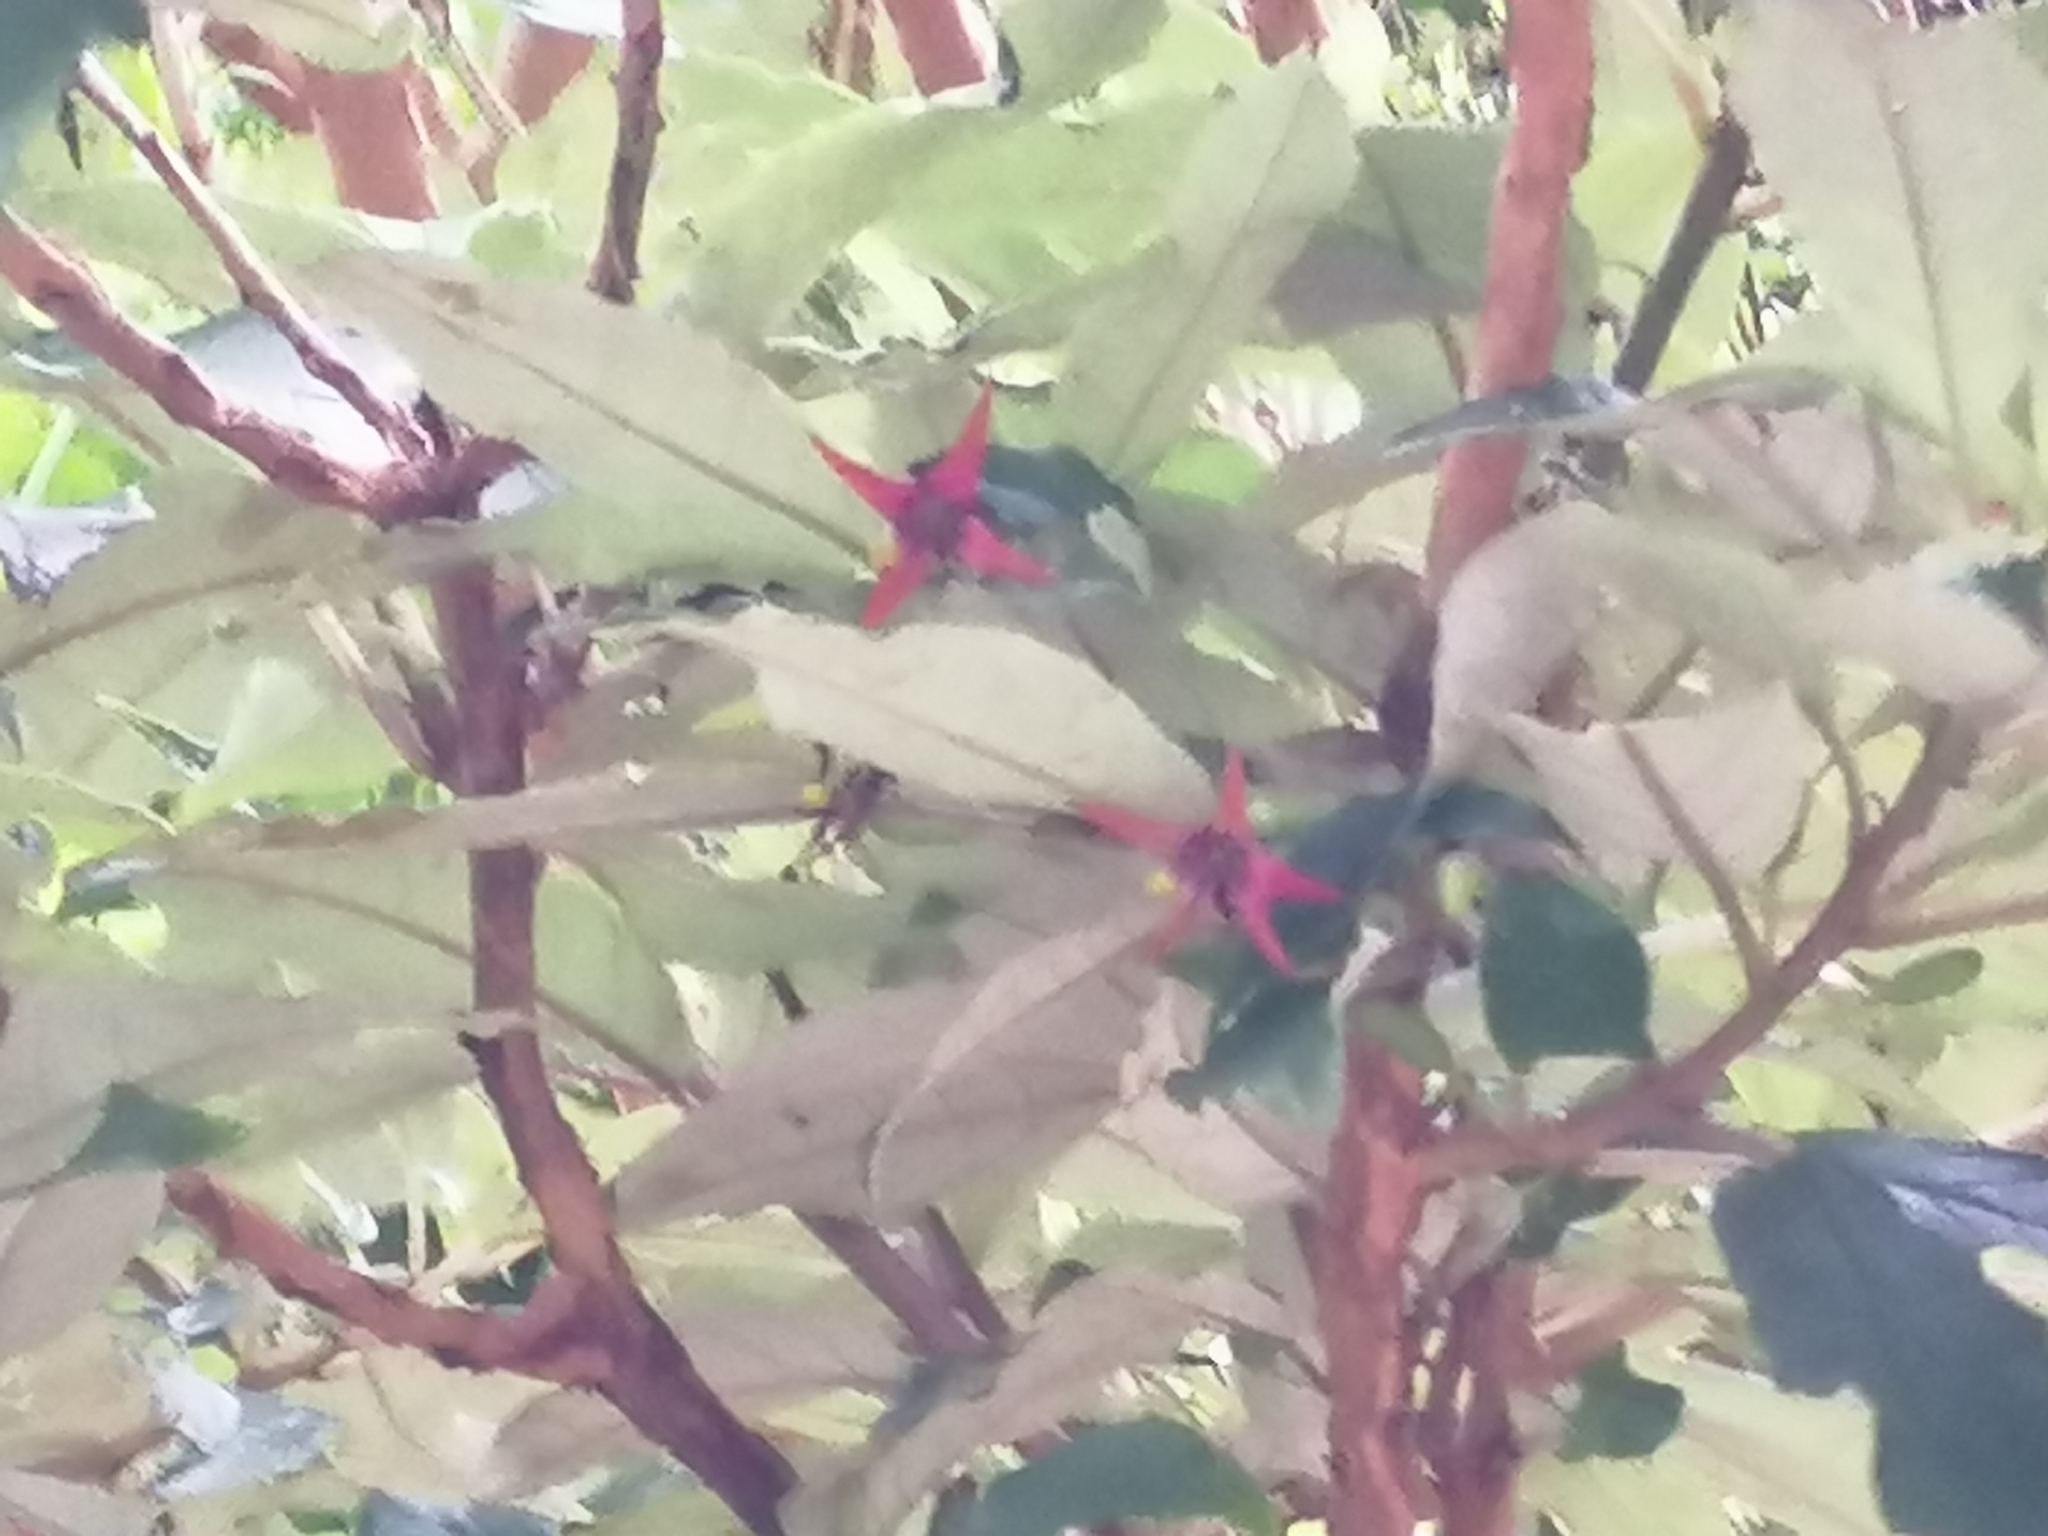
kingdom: Plantae
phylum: Tracheophyta
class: Magnoliopsida
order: Myrtales
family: Onagraceae
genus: Fuchsia
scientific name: Fuchsia excorticata
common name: Tree fuchsia
